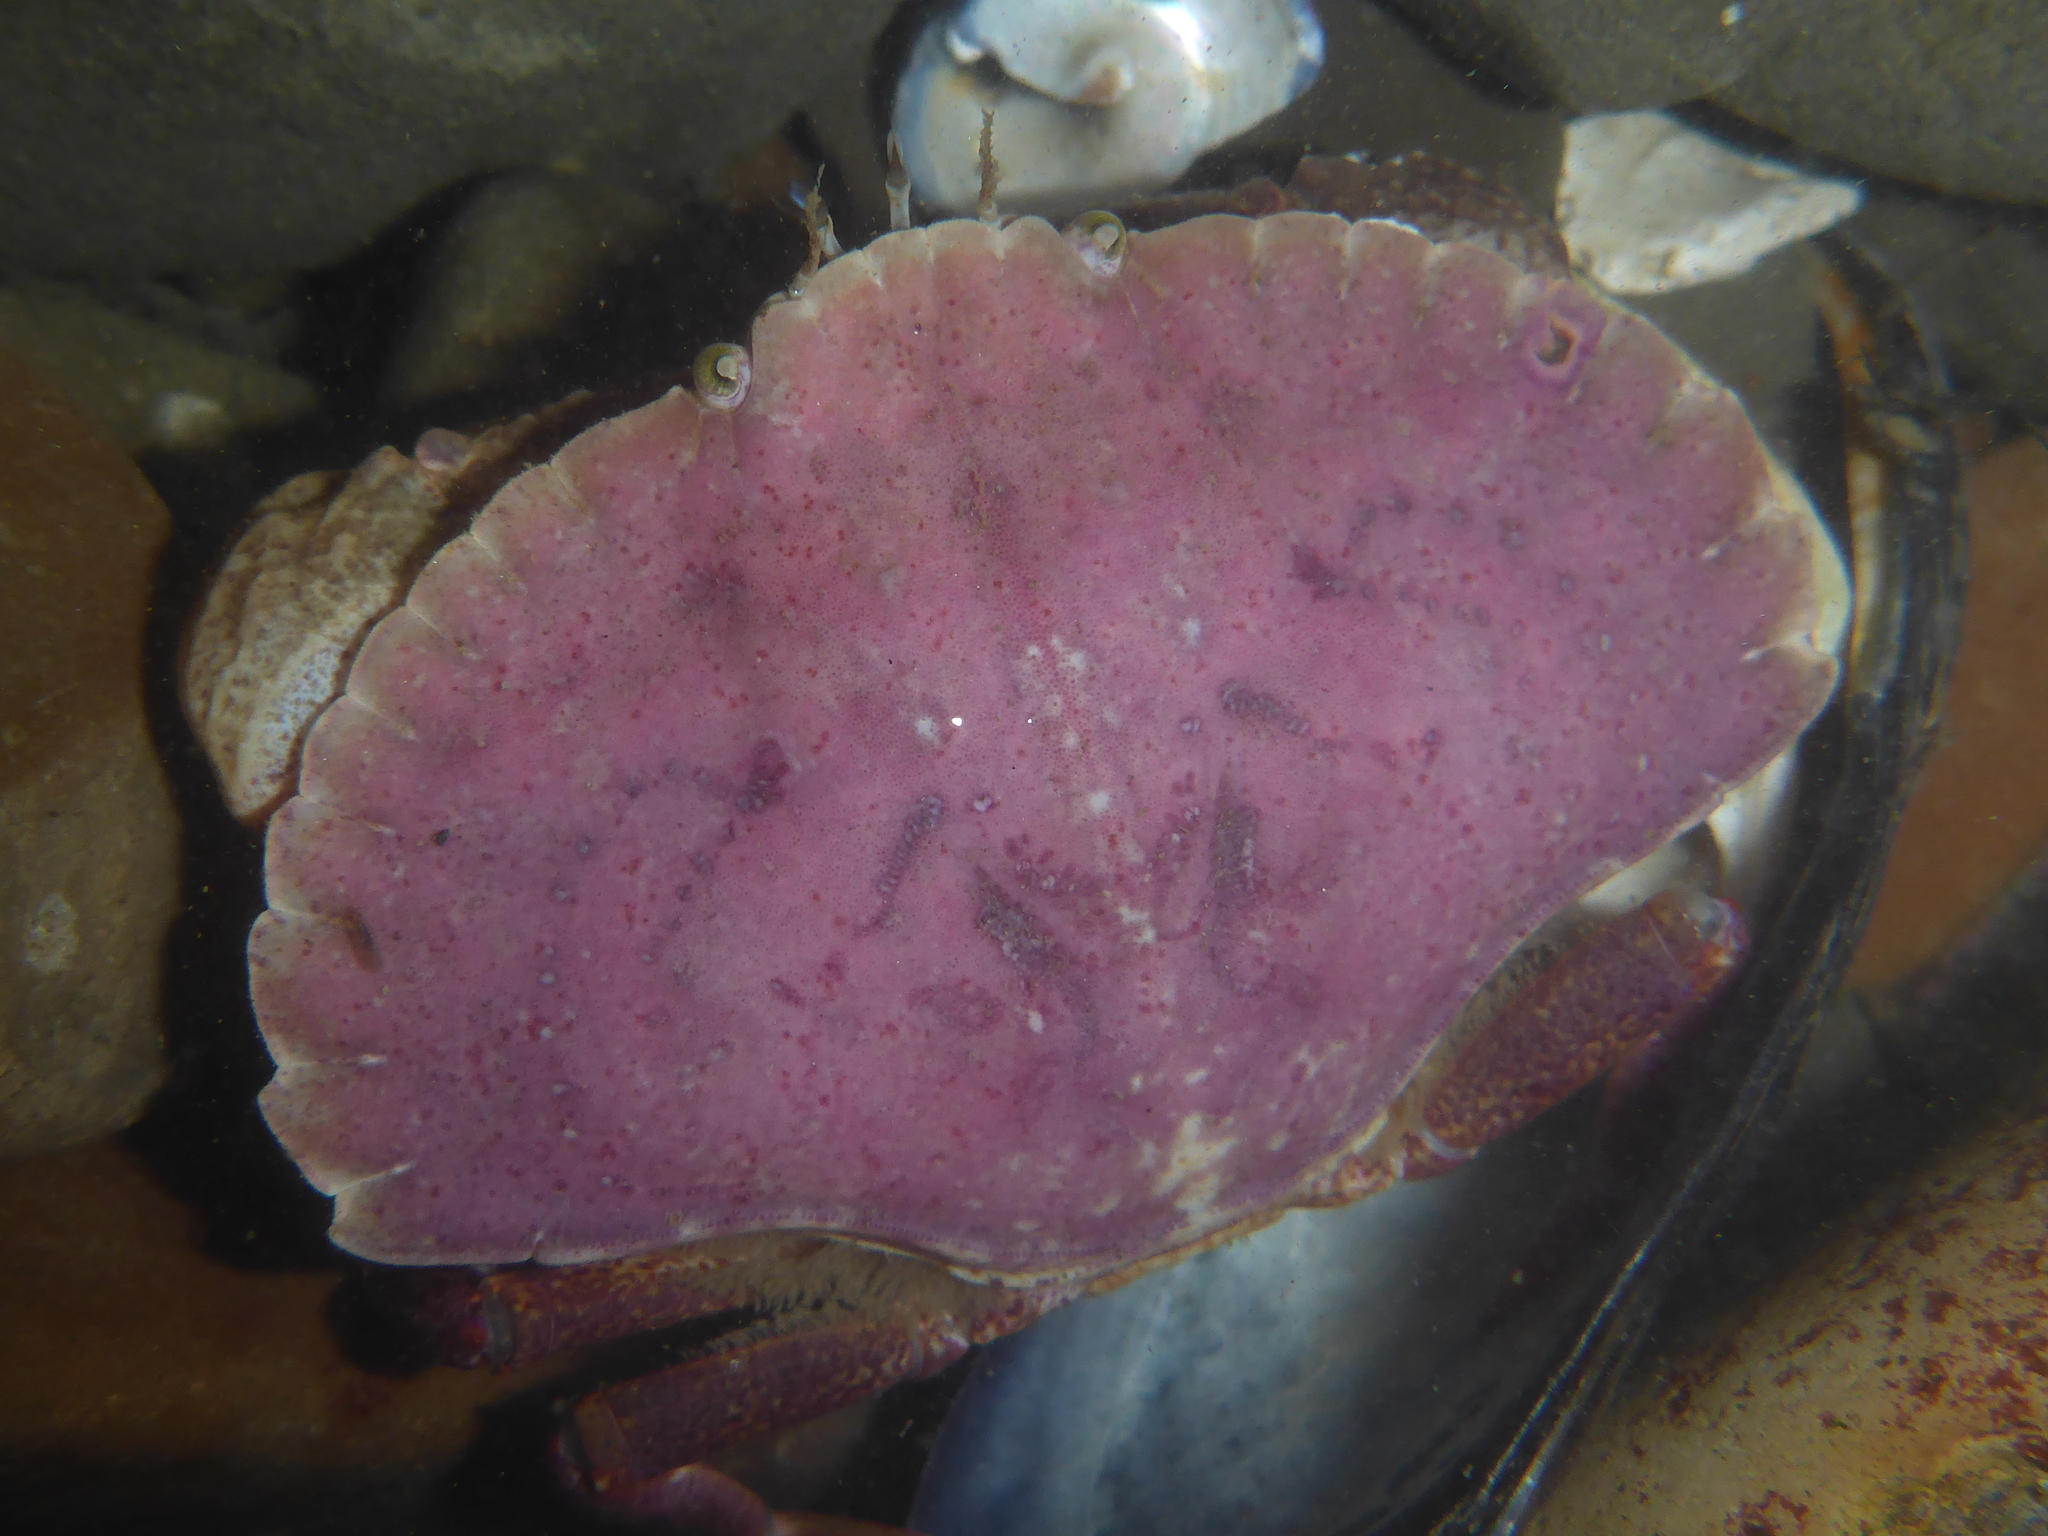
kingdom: Animalia
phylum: Arthropoda
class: Malacostraca
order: Decapoda
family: Cancridae
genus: Cancer
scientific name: Cancer productus
